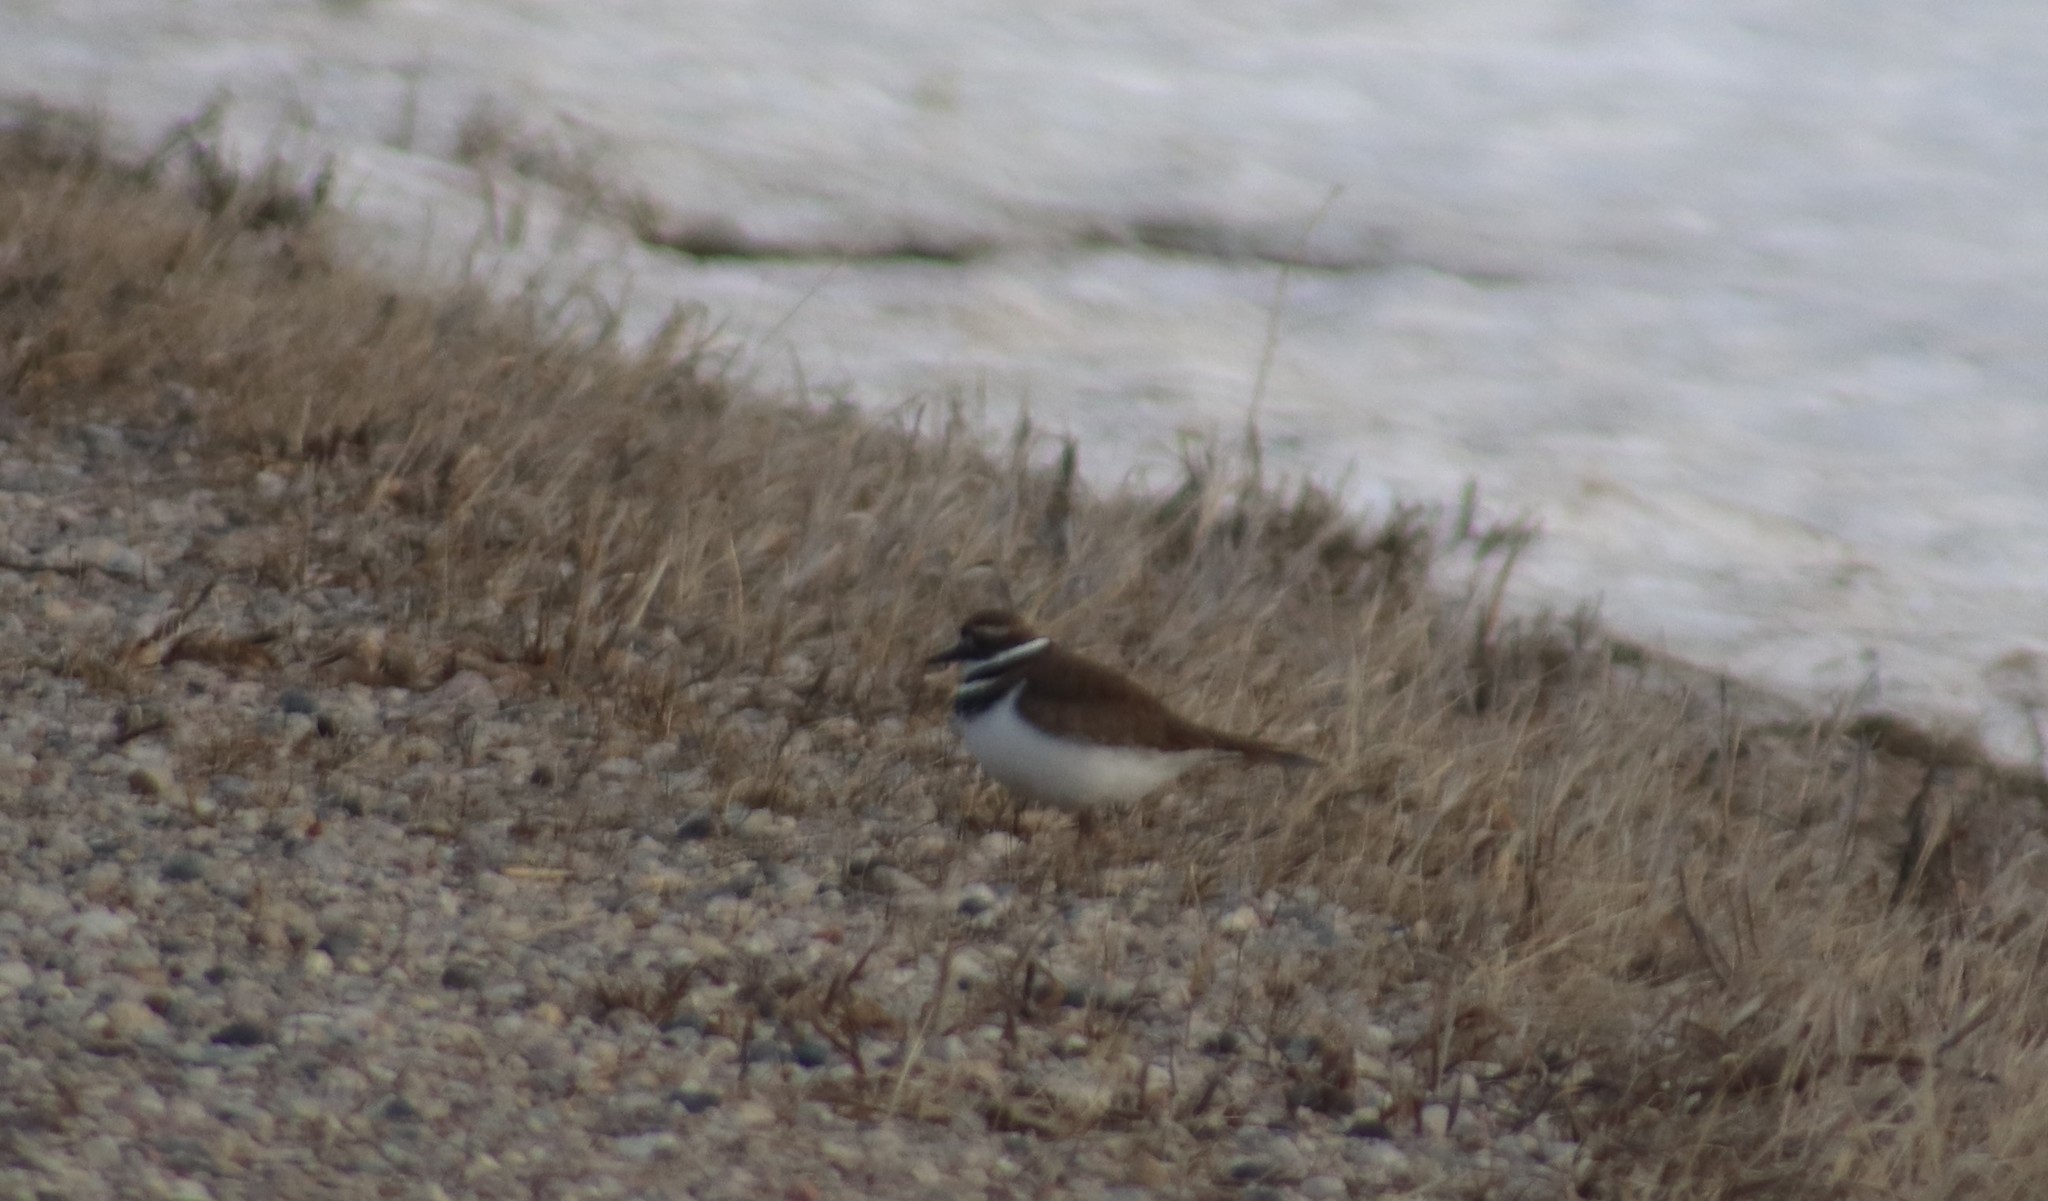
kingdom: Animalia
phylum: Chordata
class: Aves
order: Charadriiformes
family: Charadriidae
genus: Charadrius
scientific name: Charadrius vociferus
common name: Killdeer
